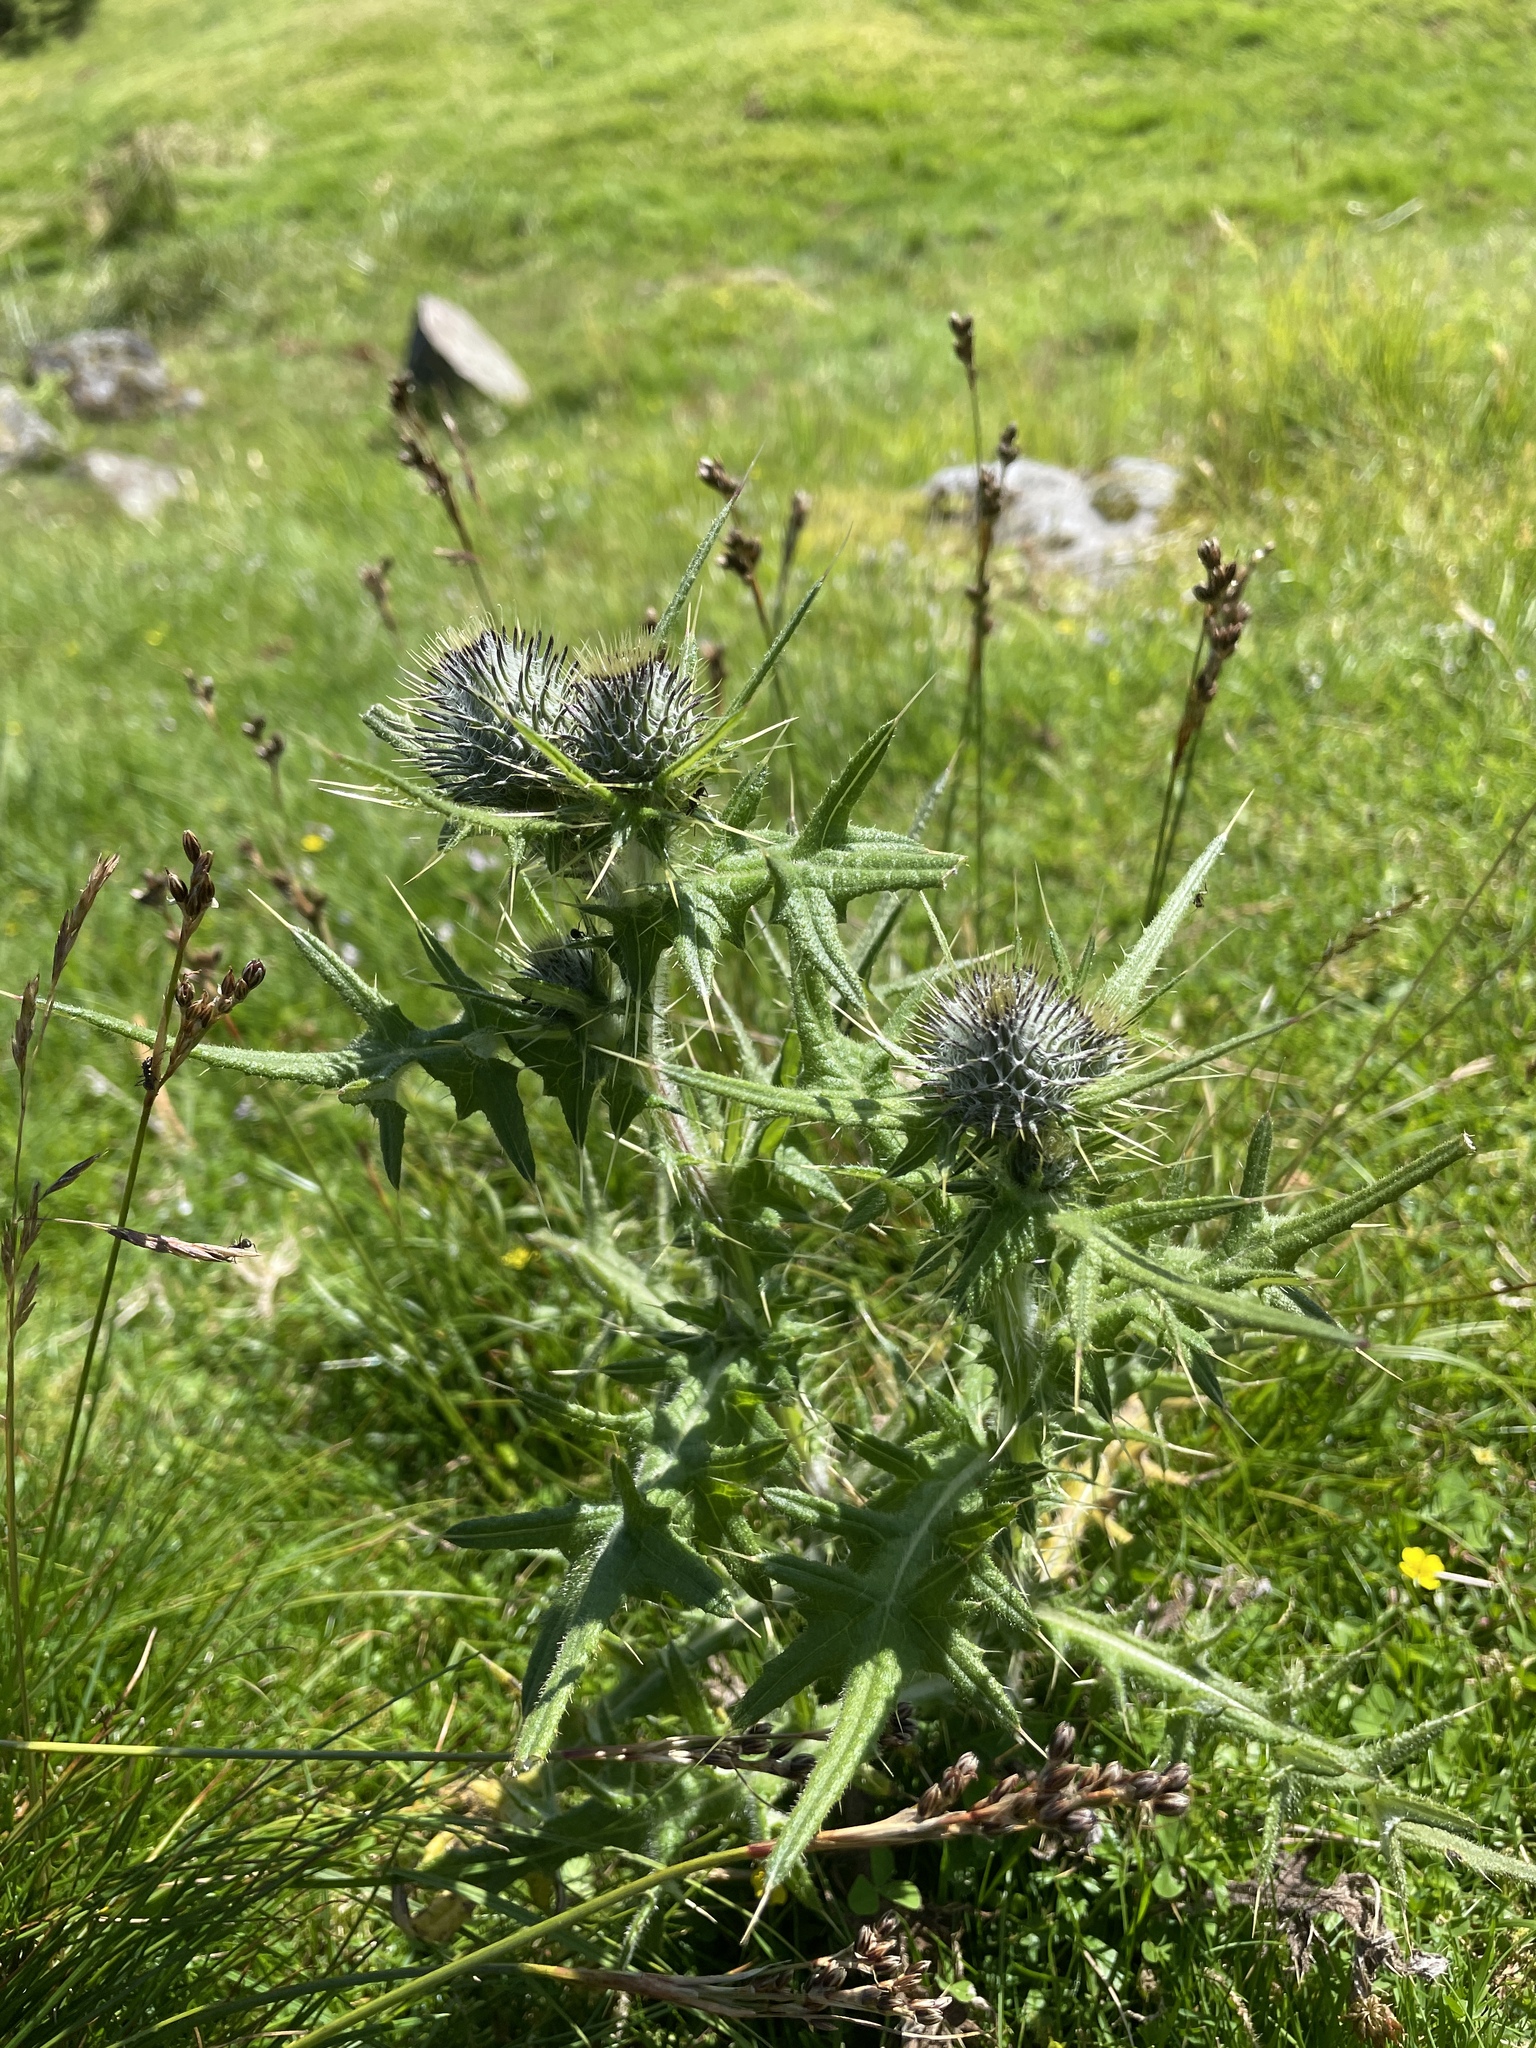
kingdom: Plantae
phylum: Tracheophyta
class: Magnoliopsida
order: Asterales
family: Asteraceae
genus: Cirsium
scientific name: Cirsium vulgare
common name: Bull thistle
